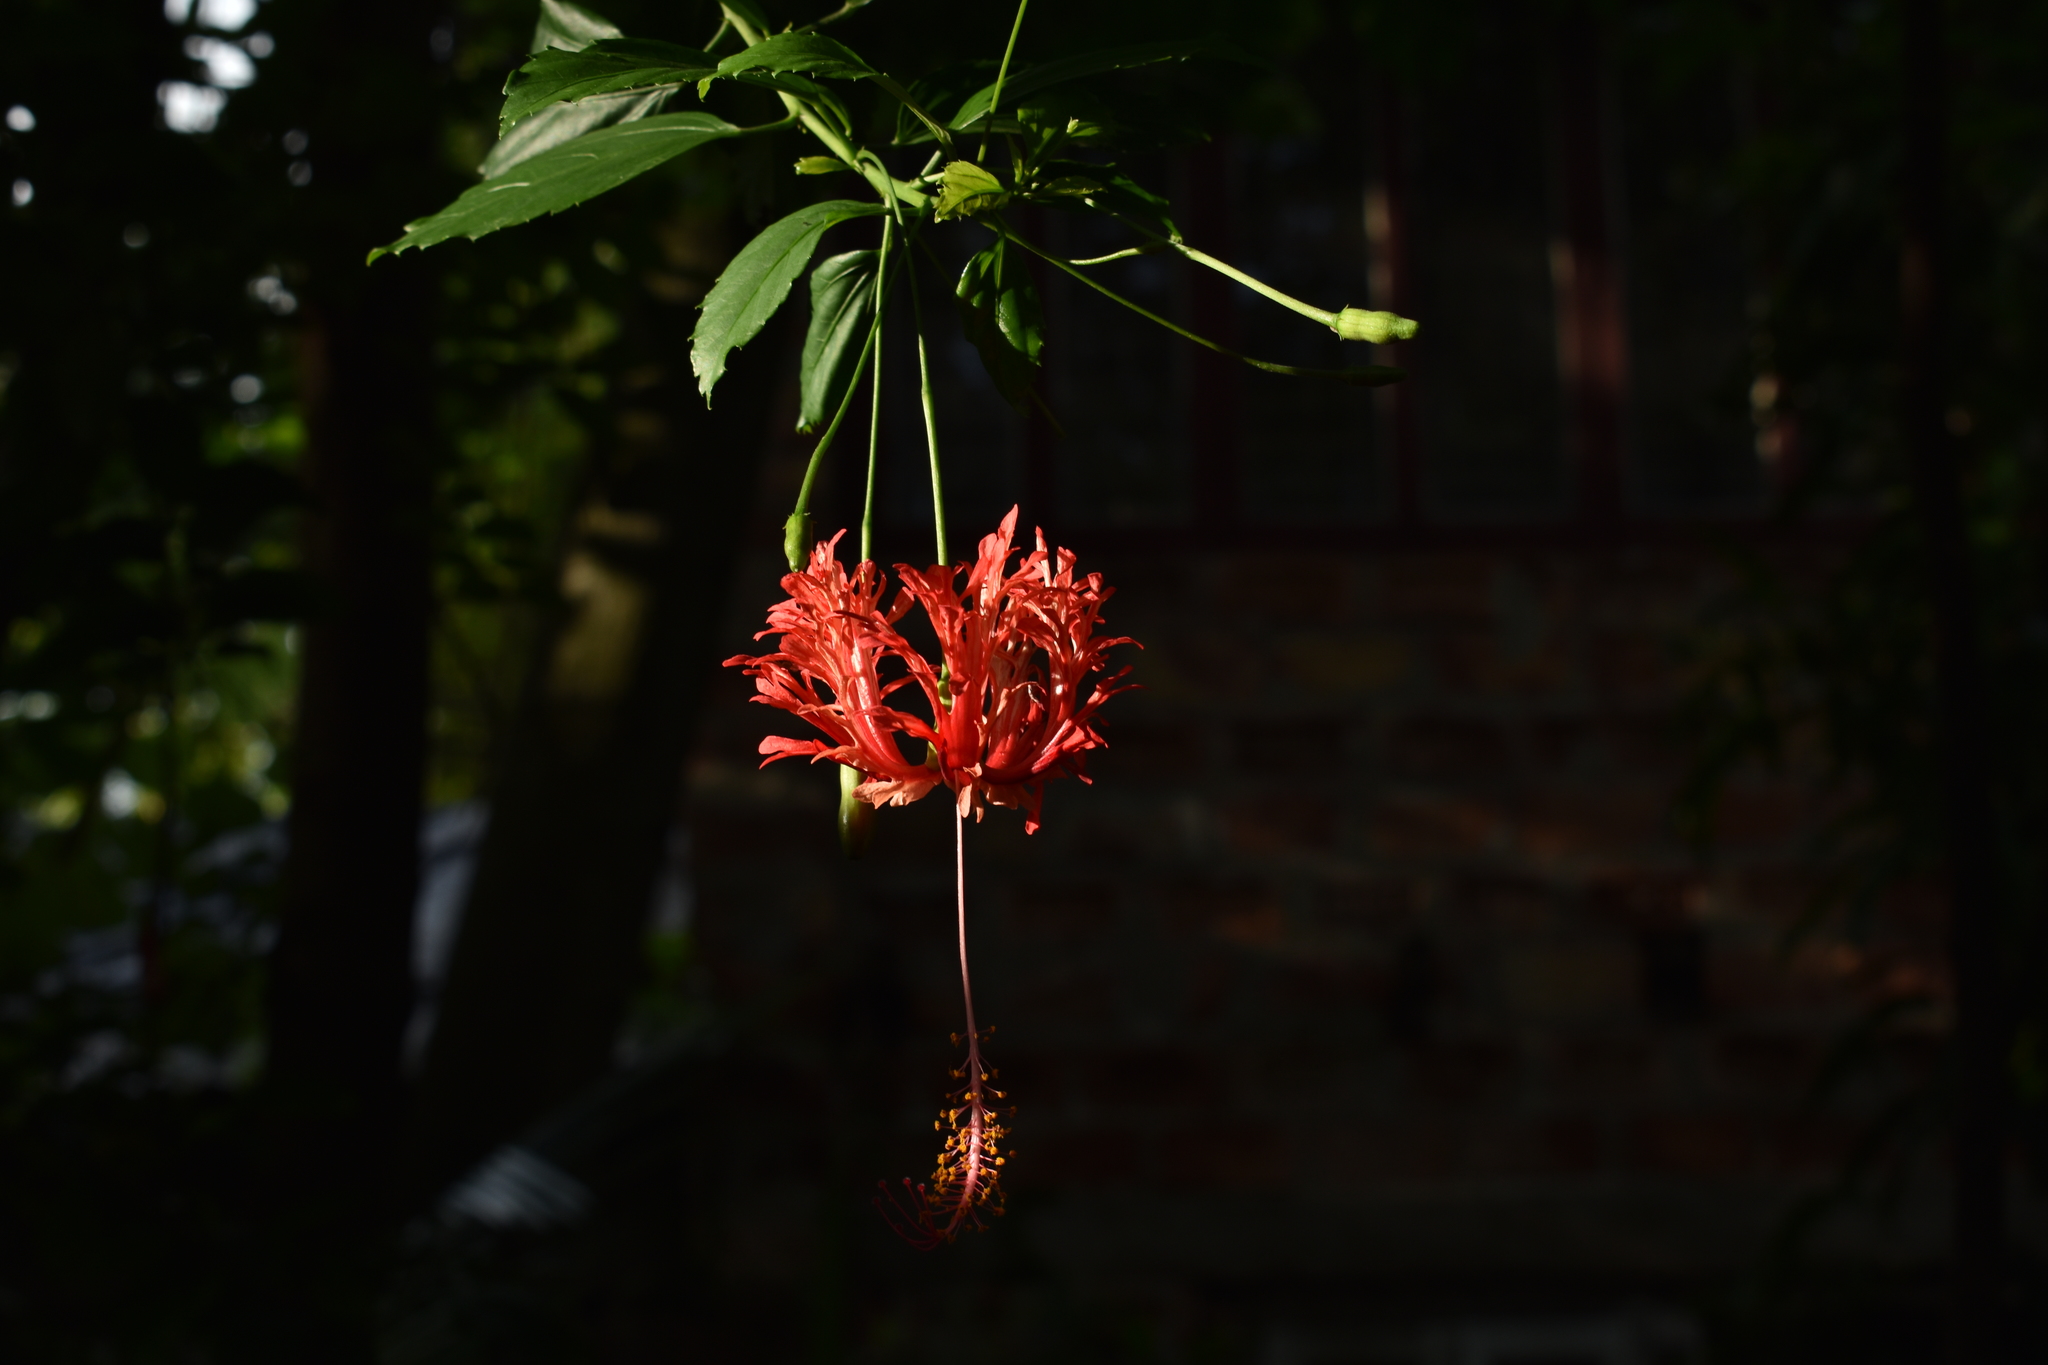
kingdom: Plantae
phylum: Tracheophyta
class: Magnoliopsida
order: Malvales
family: Malvaceae
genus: Hibiscus
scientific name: Hibiscus schizopetalus
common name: Fringed rosemallow
